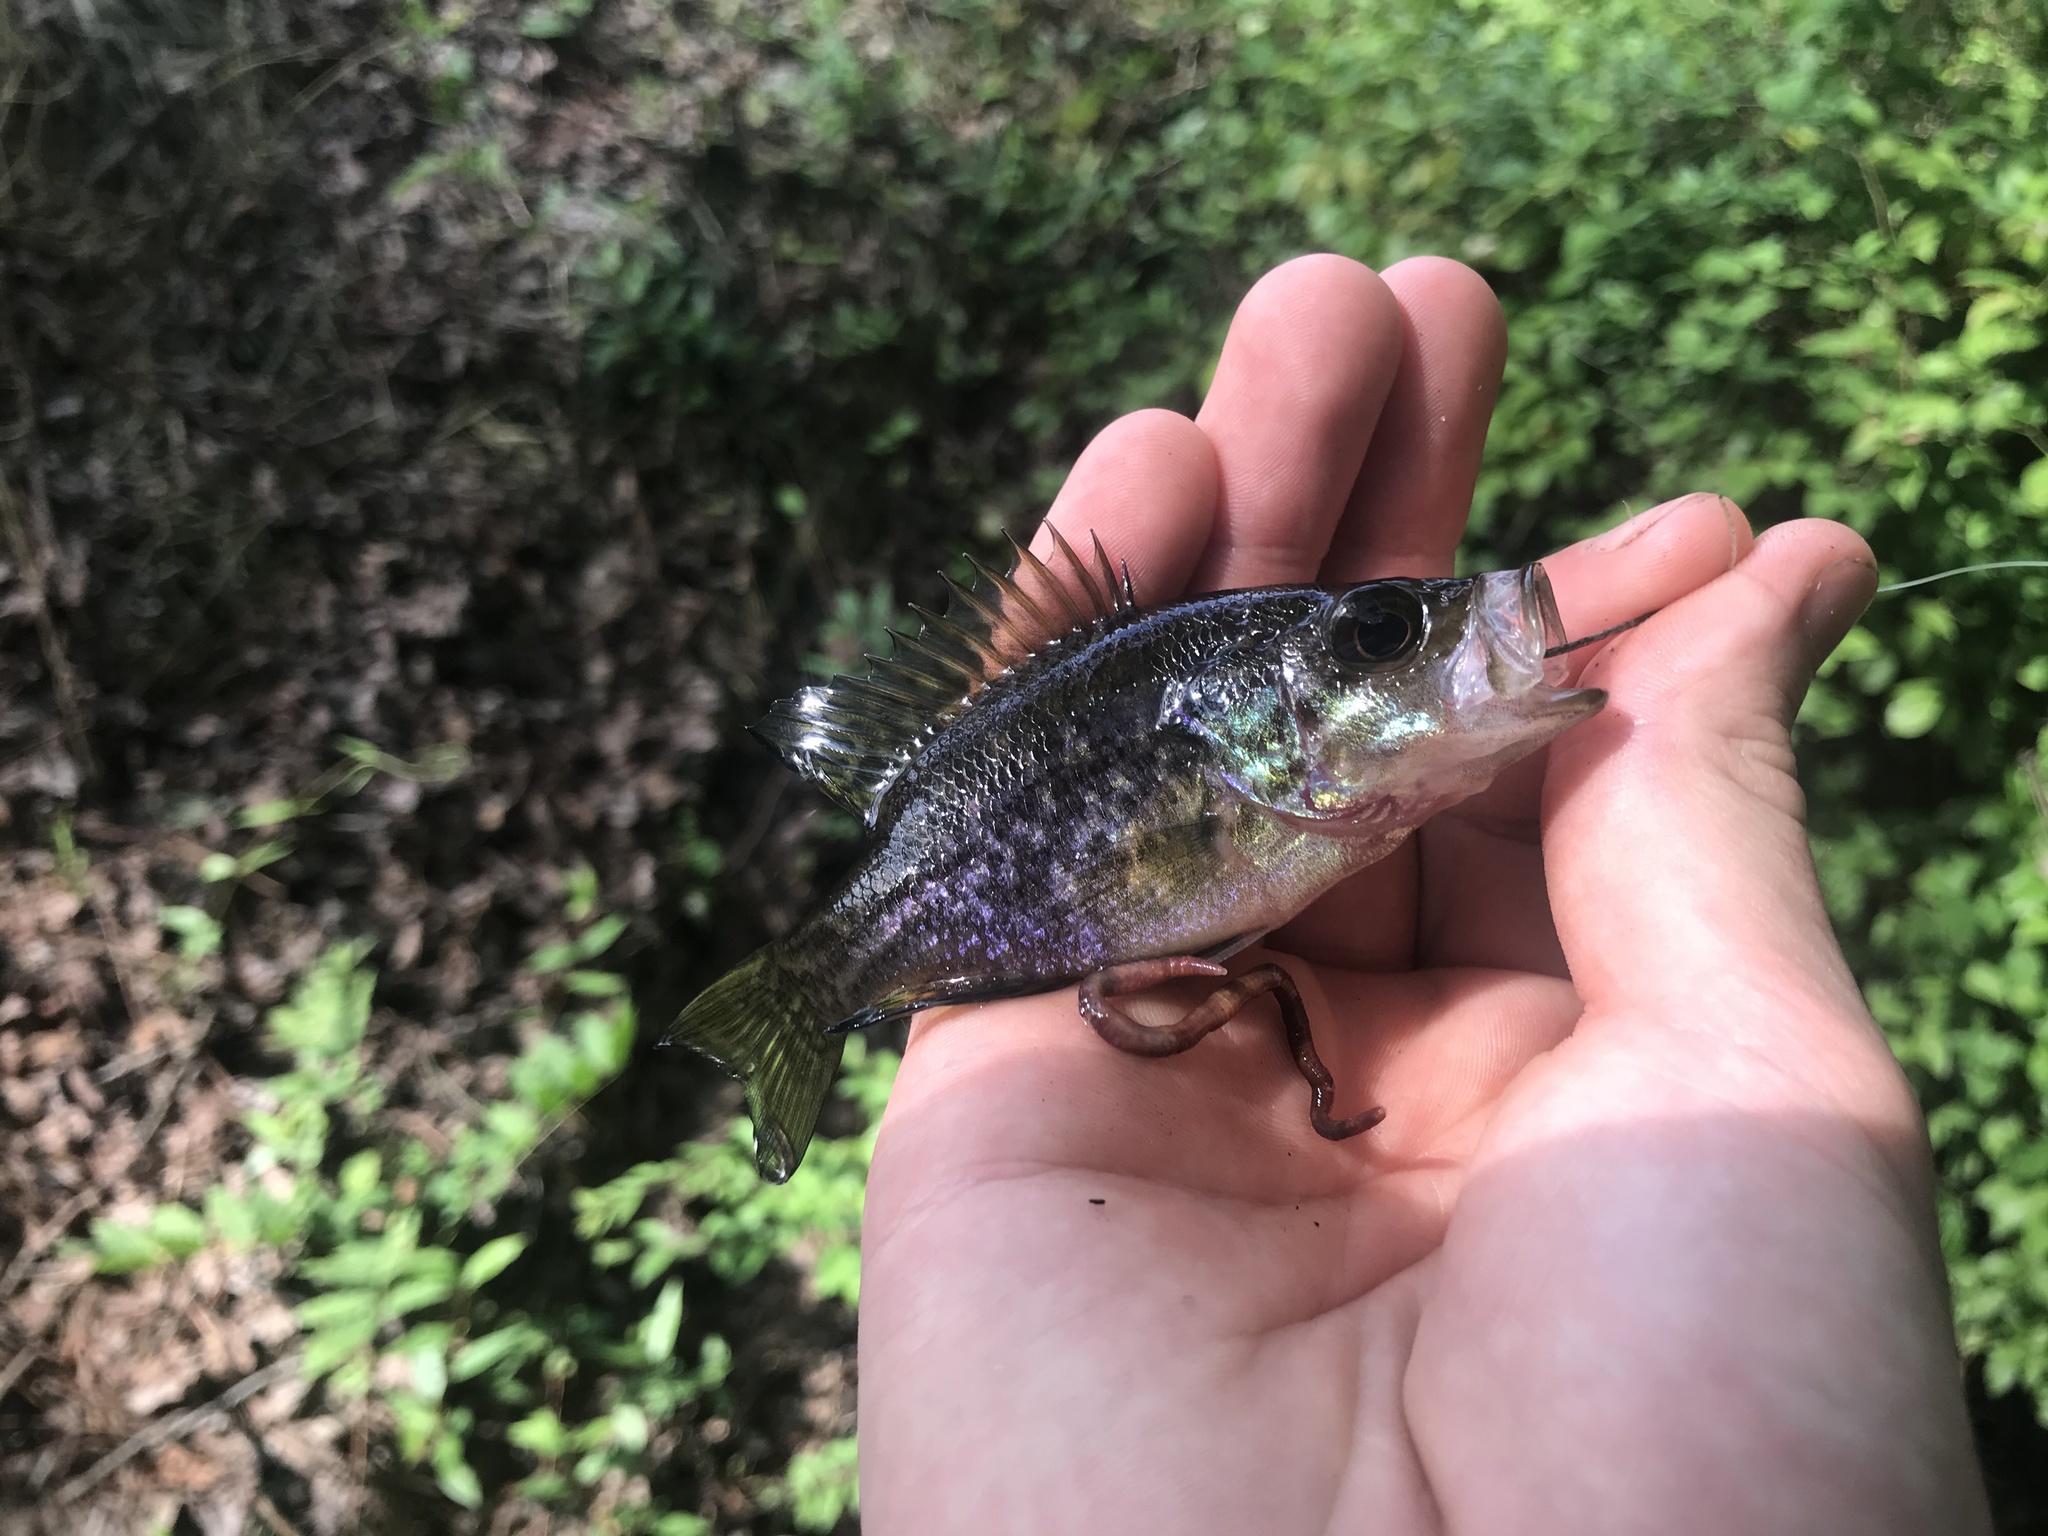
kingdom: Animalia
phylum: Chordata
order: Perciformes
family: Centrarchidae
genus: Lepomis
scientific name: Lepomis gulosus
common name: Warmouth
